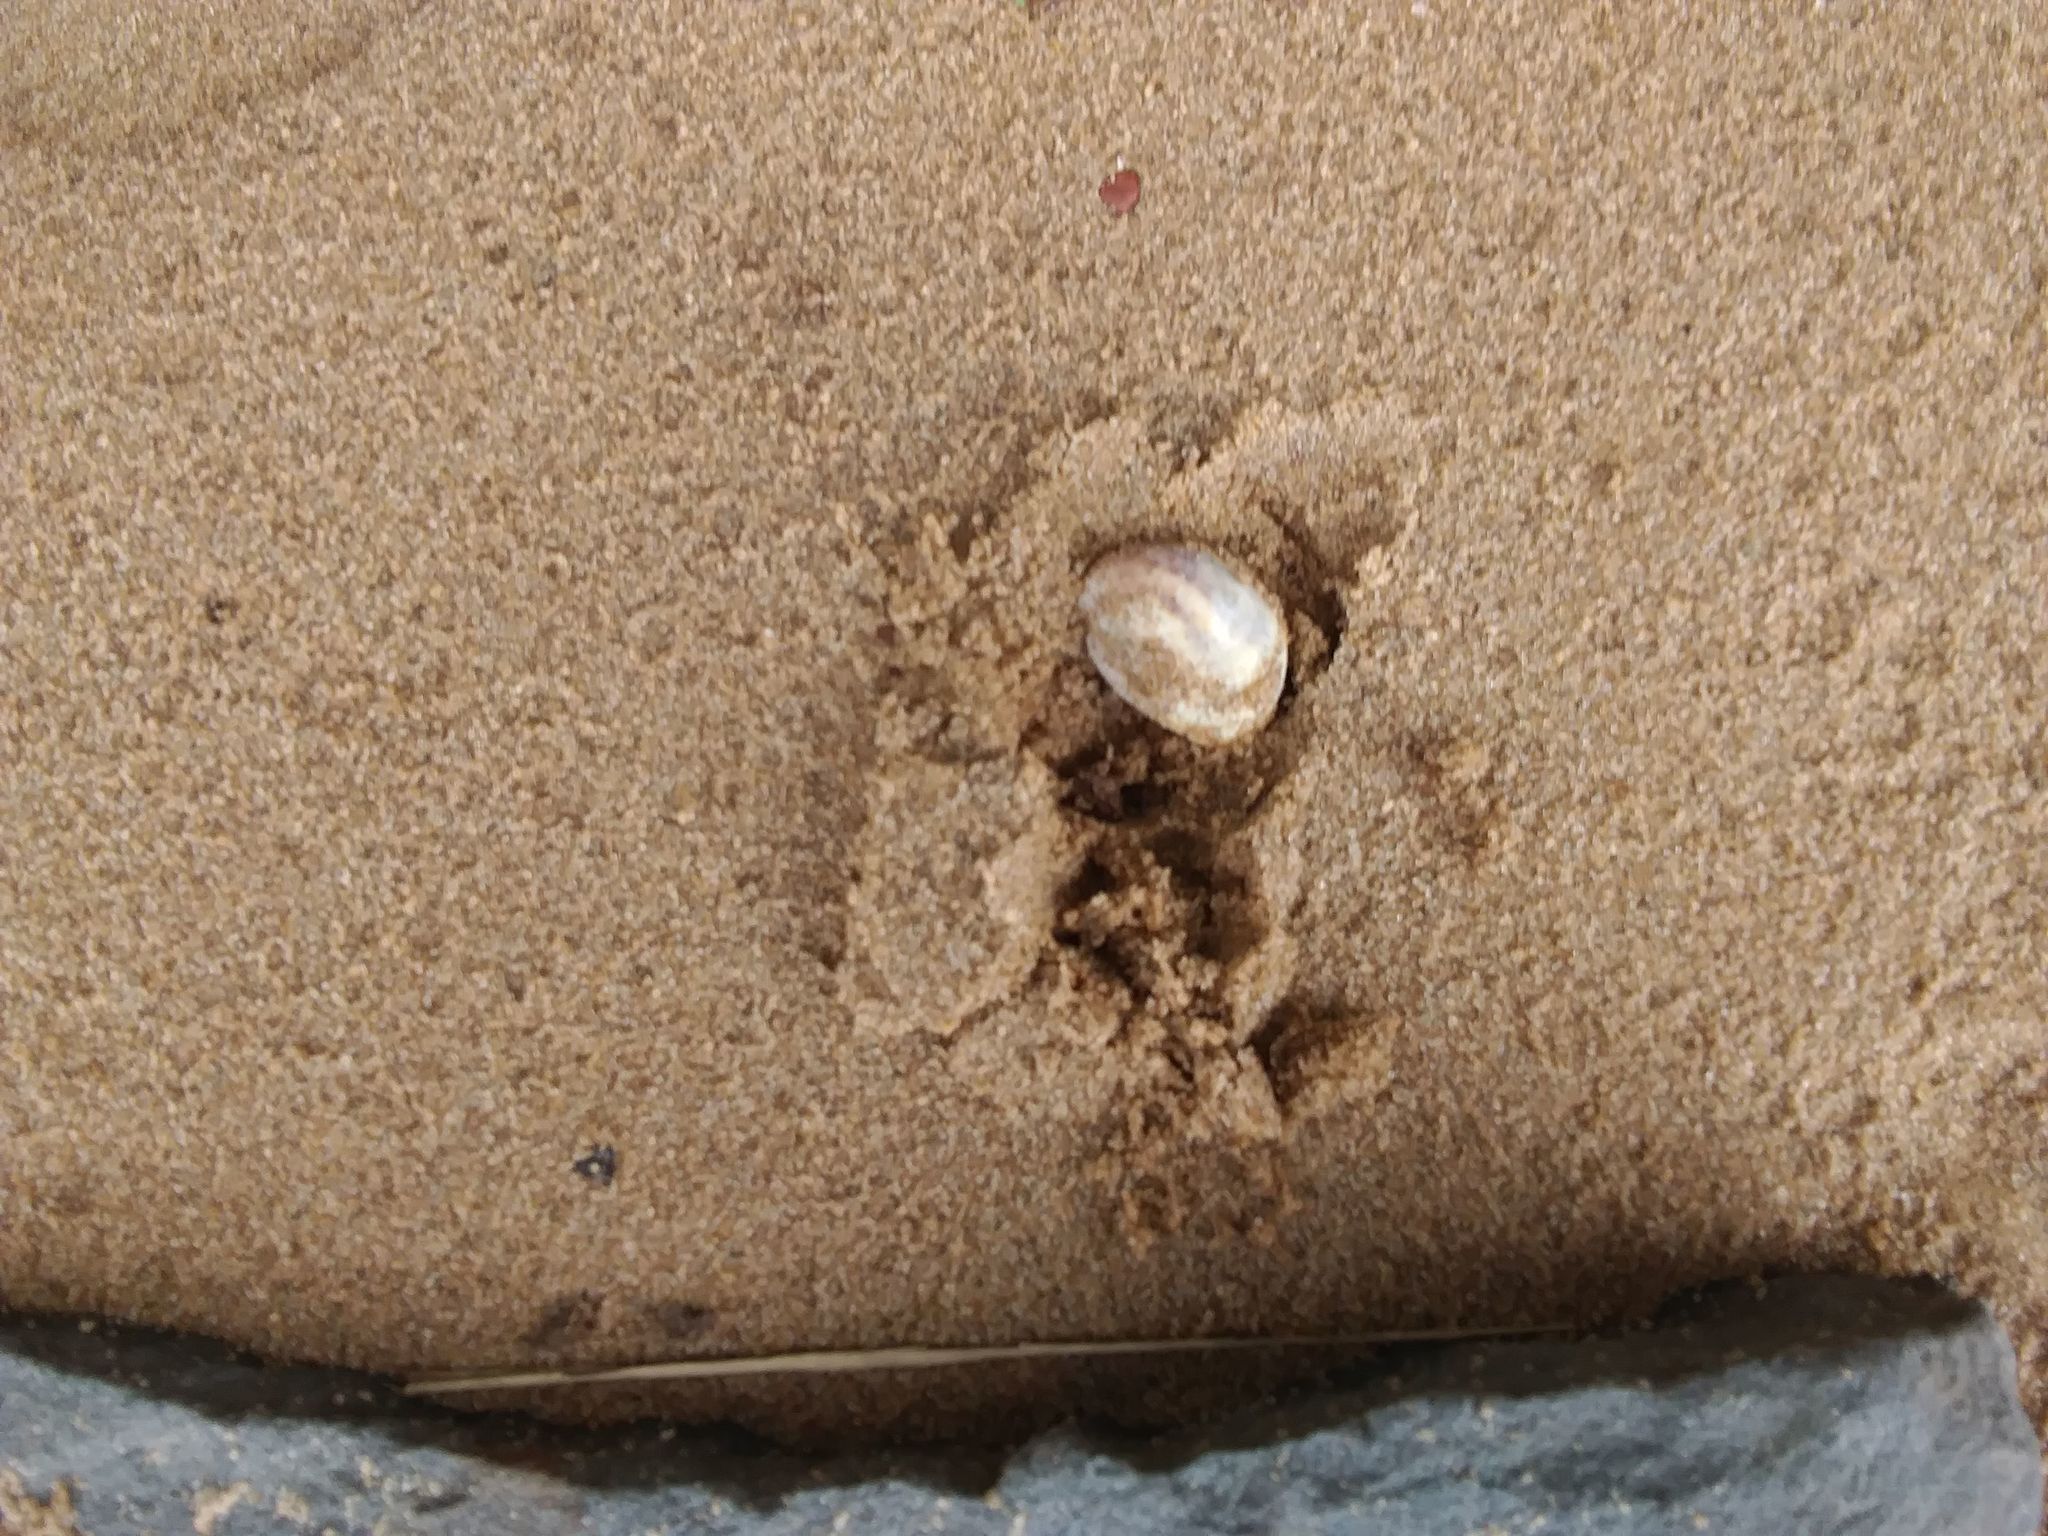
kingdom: Animalia
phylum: Mollusca
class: Gastropoda
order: Littorinimorpha
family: Calyptraeidae
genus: Crepidula
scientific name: Crepidula fornicata
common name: Slipper limpet
